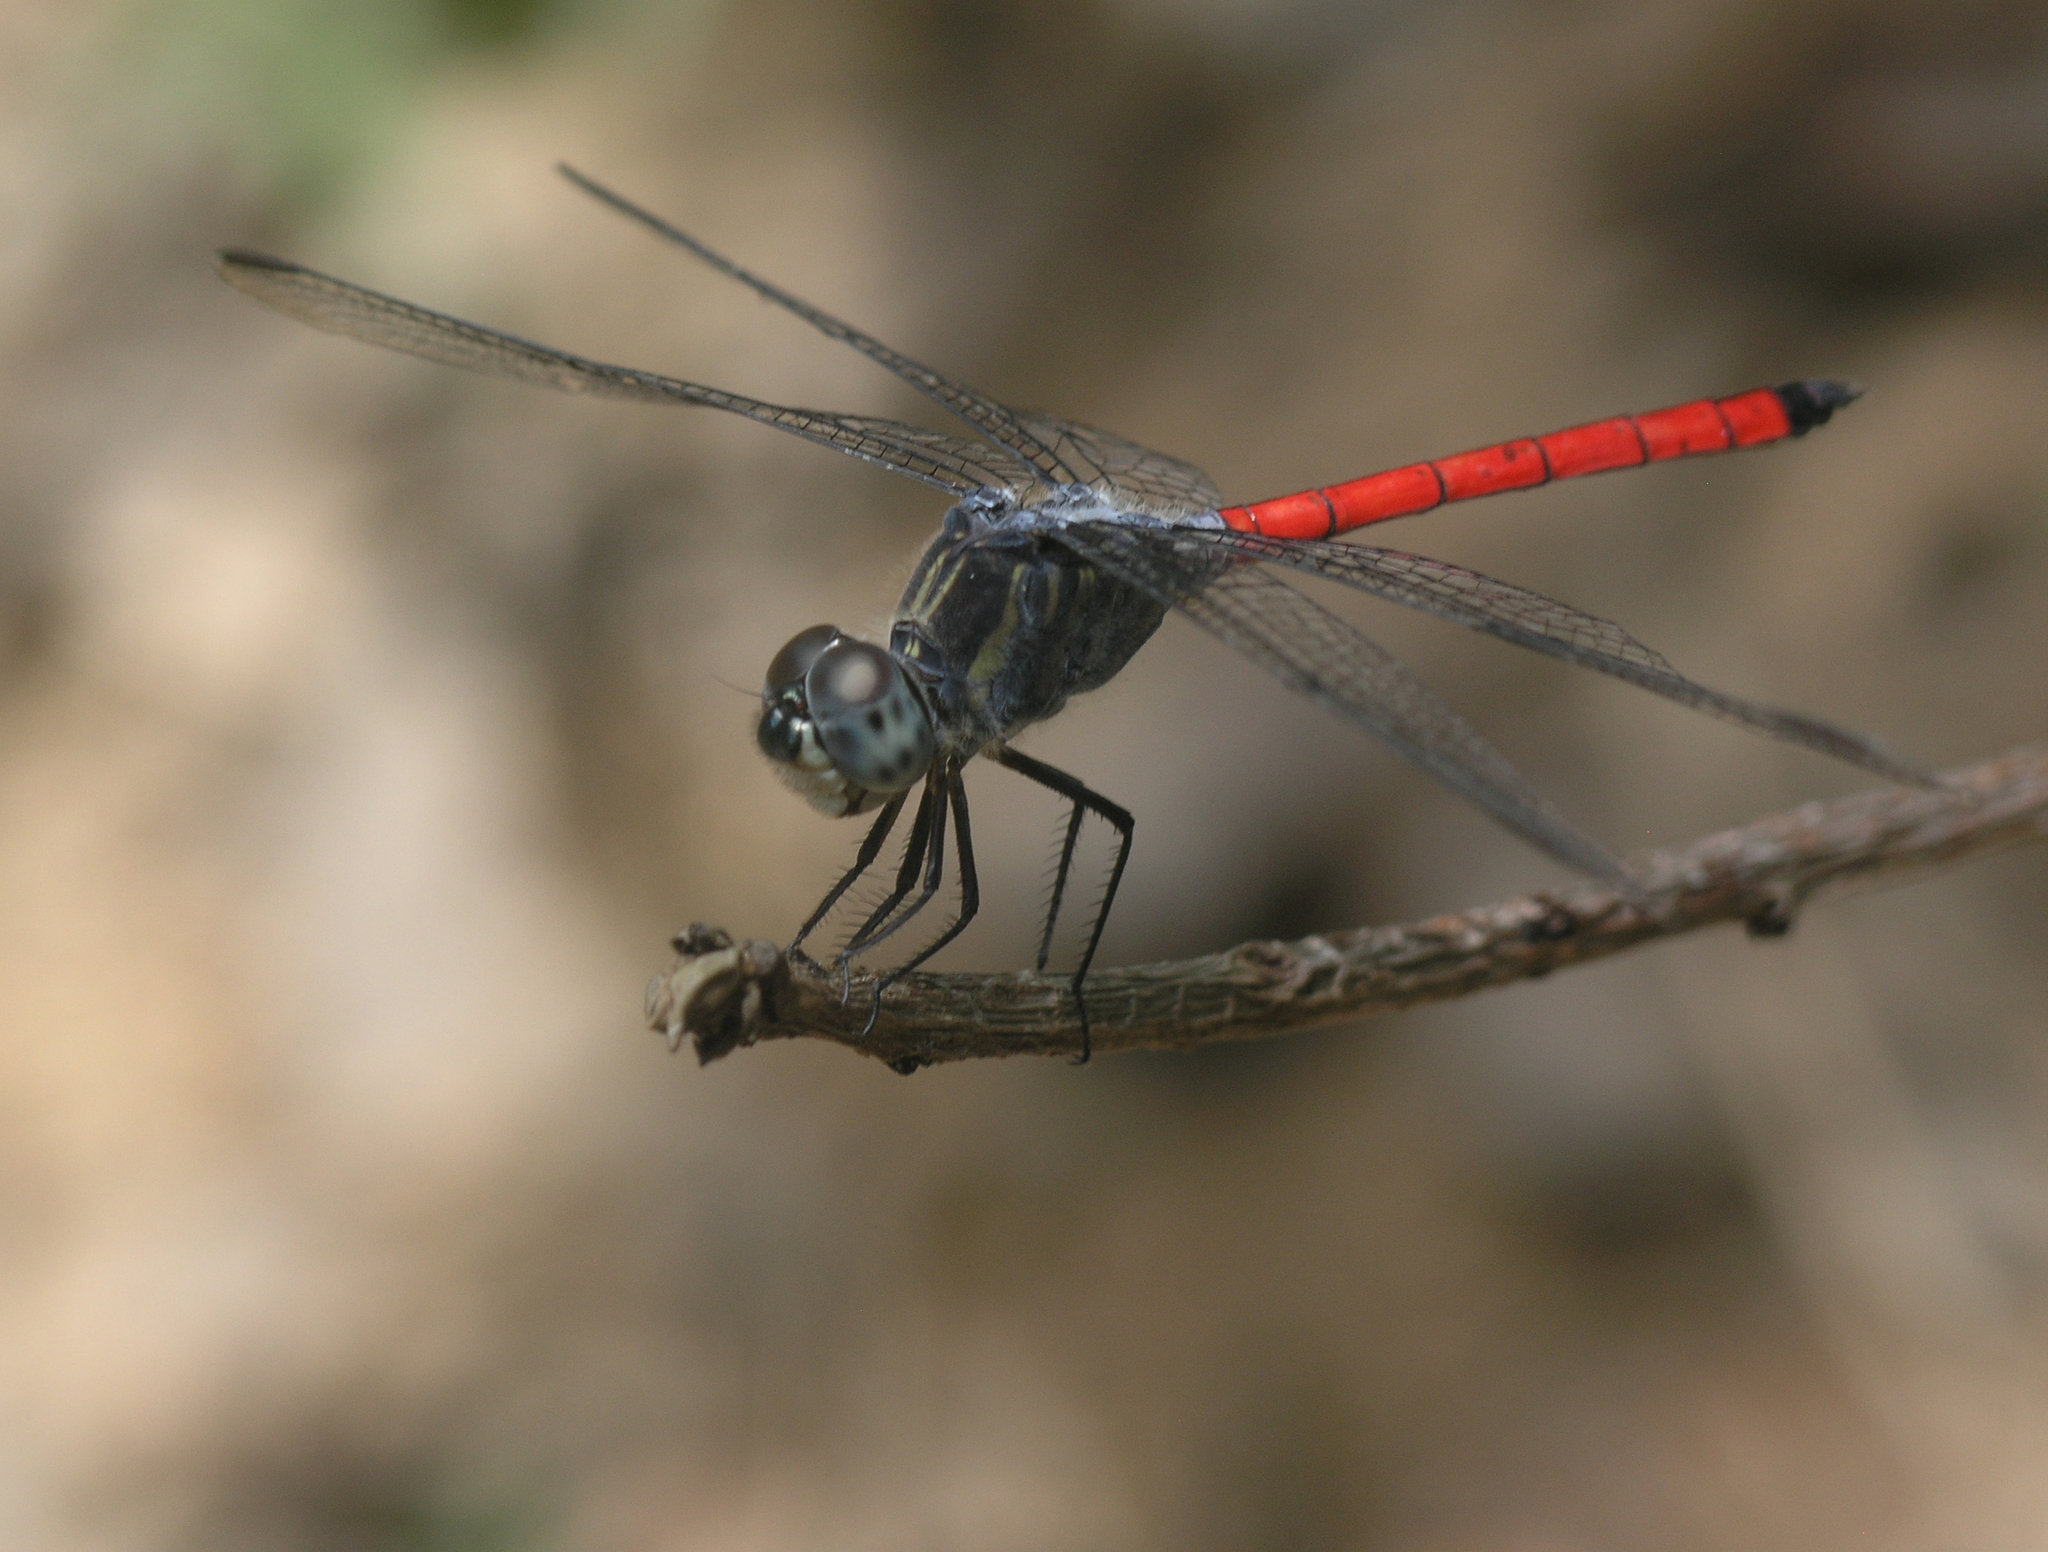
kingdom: Animalia
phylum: Arthropoda
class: Insecta
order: Odonata
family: Libellulidae
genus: Lathrecista
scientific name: Lathrecista asiatica
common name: Scarlet grenadier
